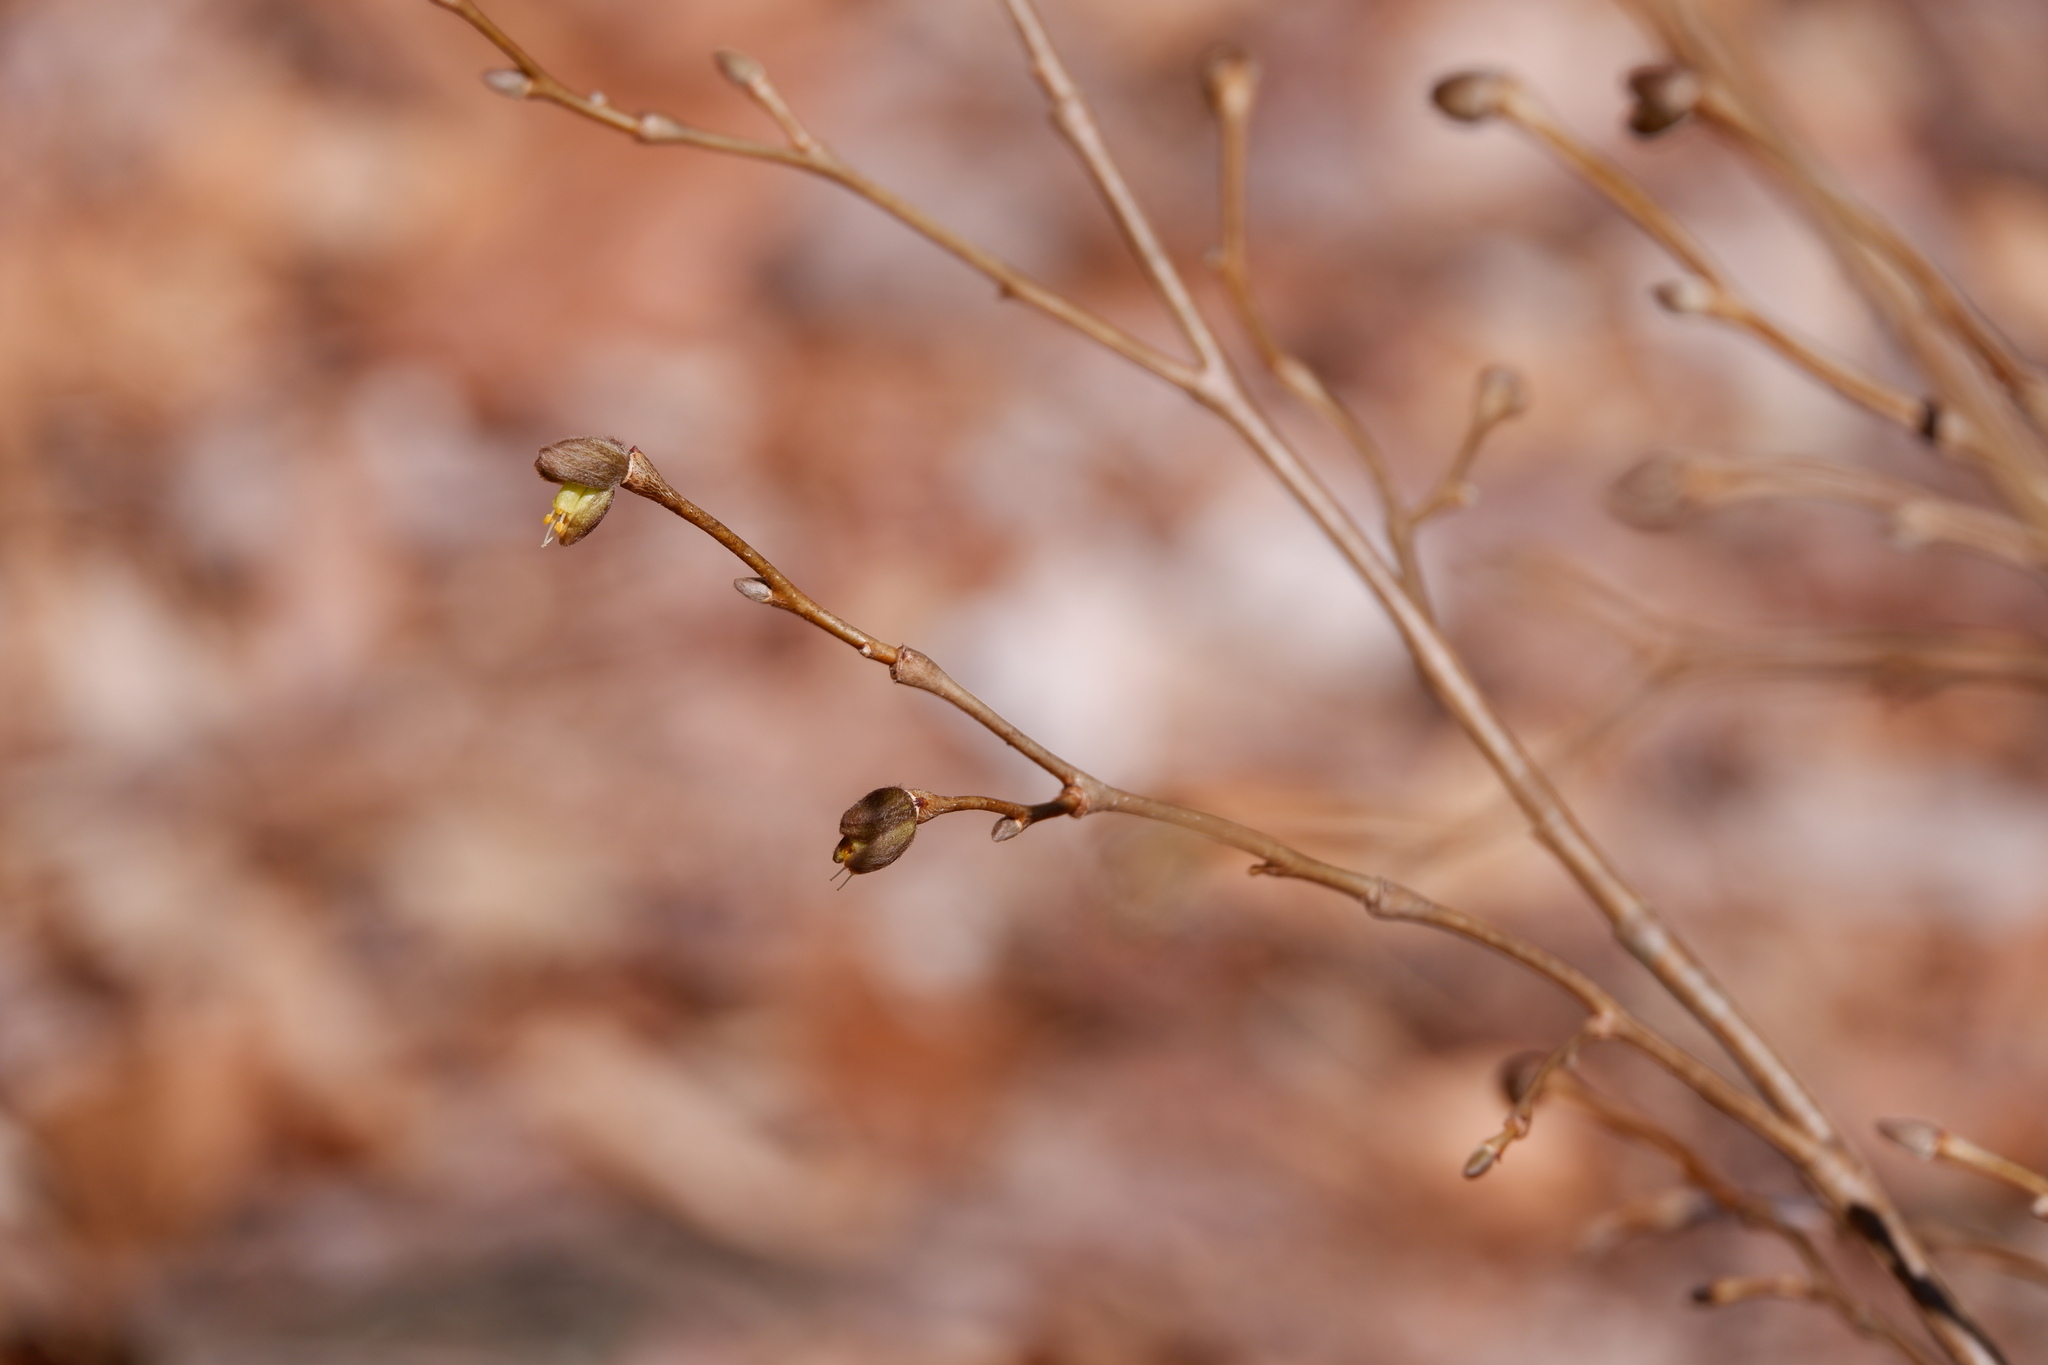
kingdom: Plantae
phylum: Tracheophyta
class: Magnoliopsida
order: Malvales
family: Thymelaeaceae
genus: Dirca
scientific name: Dirca palustris
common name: Leatherwood
